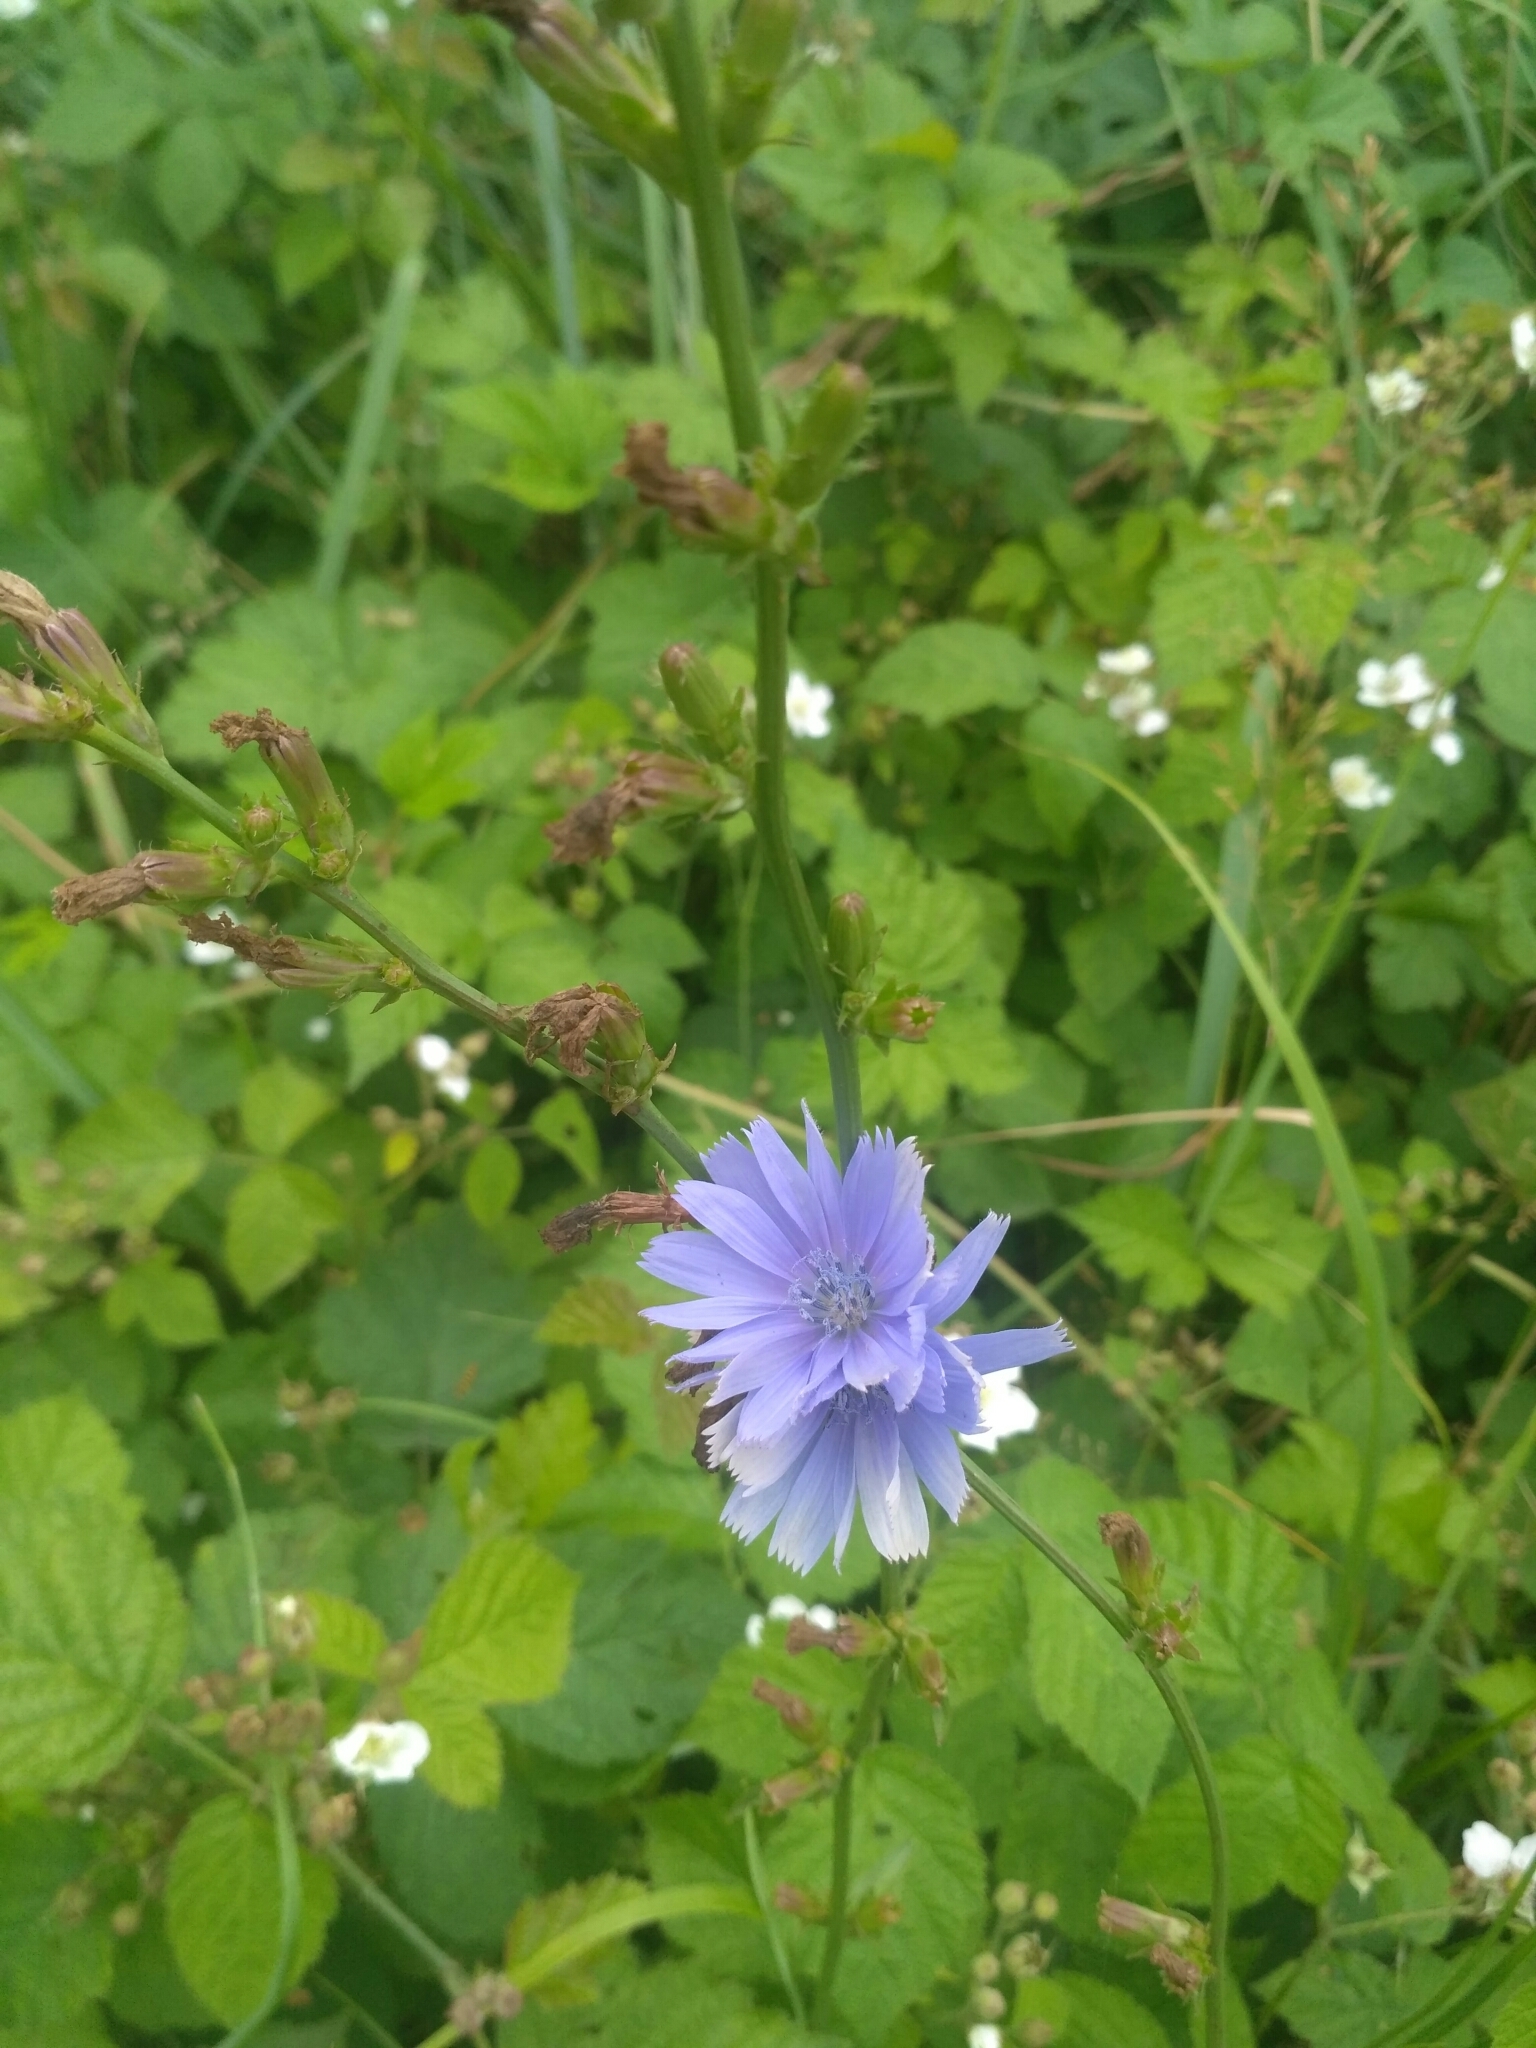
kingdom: Plantae
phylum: Tracheophyta
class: Magnoliopsida
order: Asterales
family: Asteraceae
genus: Cichorium
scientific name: Cichorium intybus
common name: Chicory
